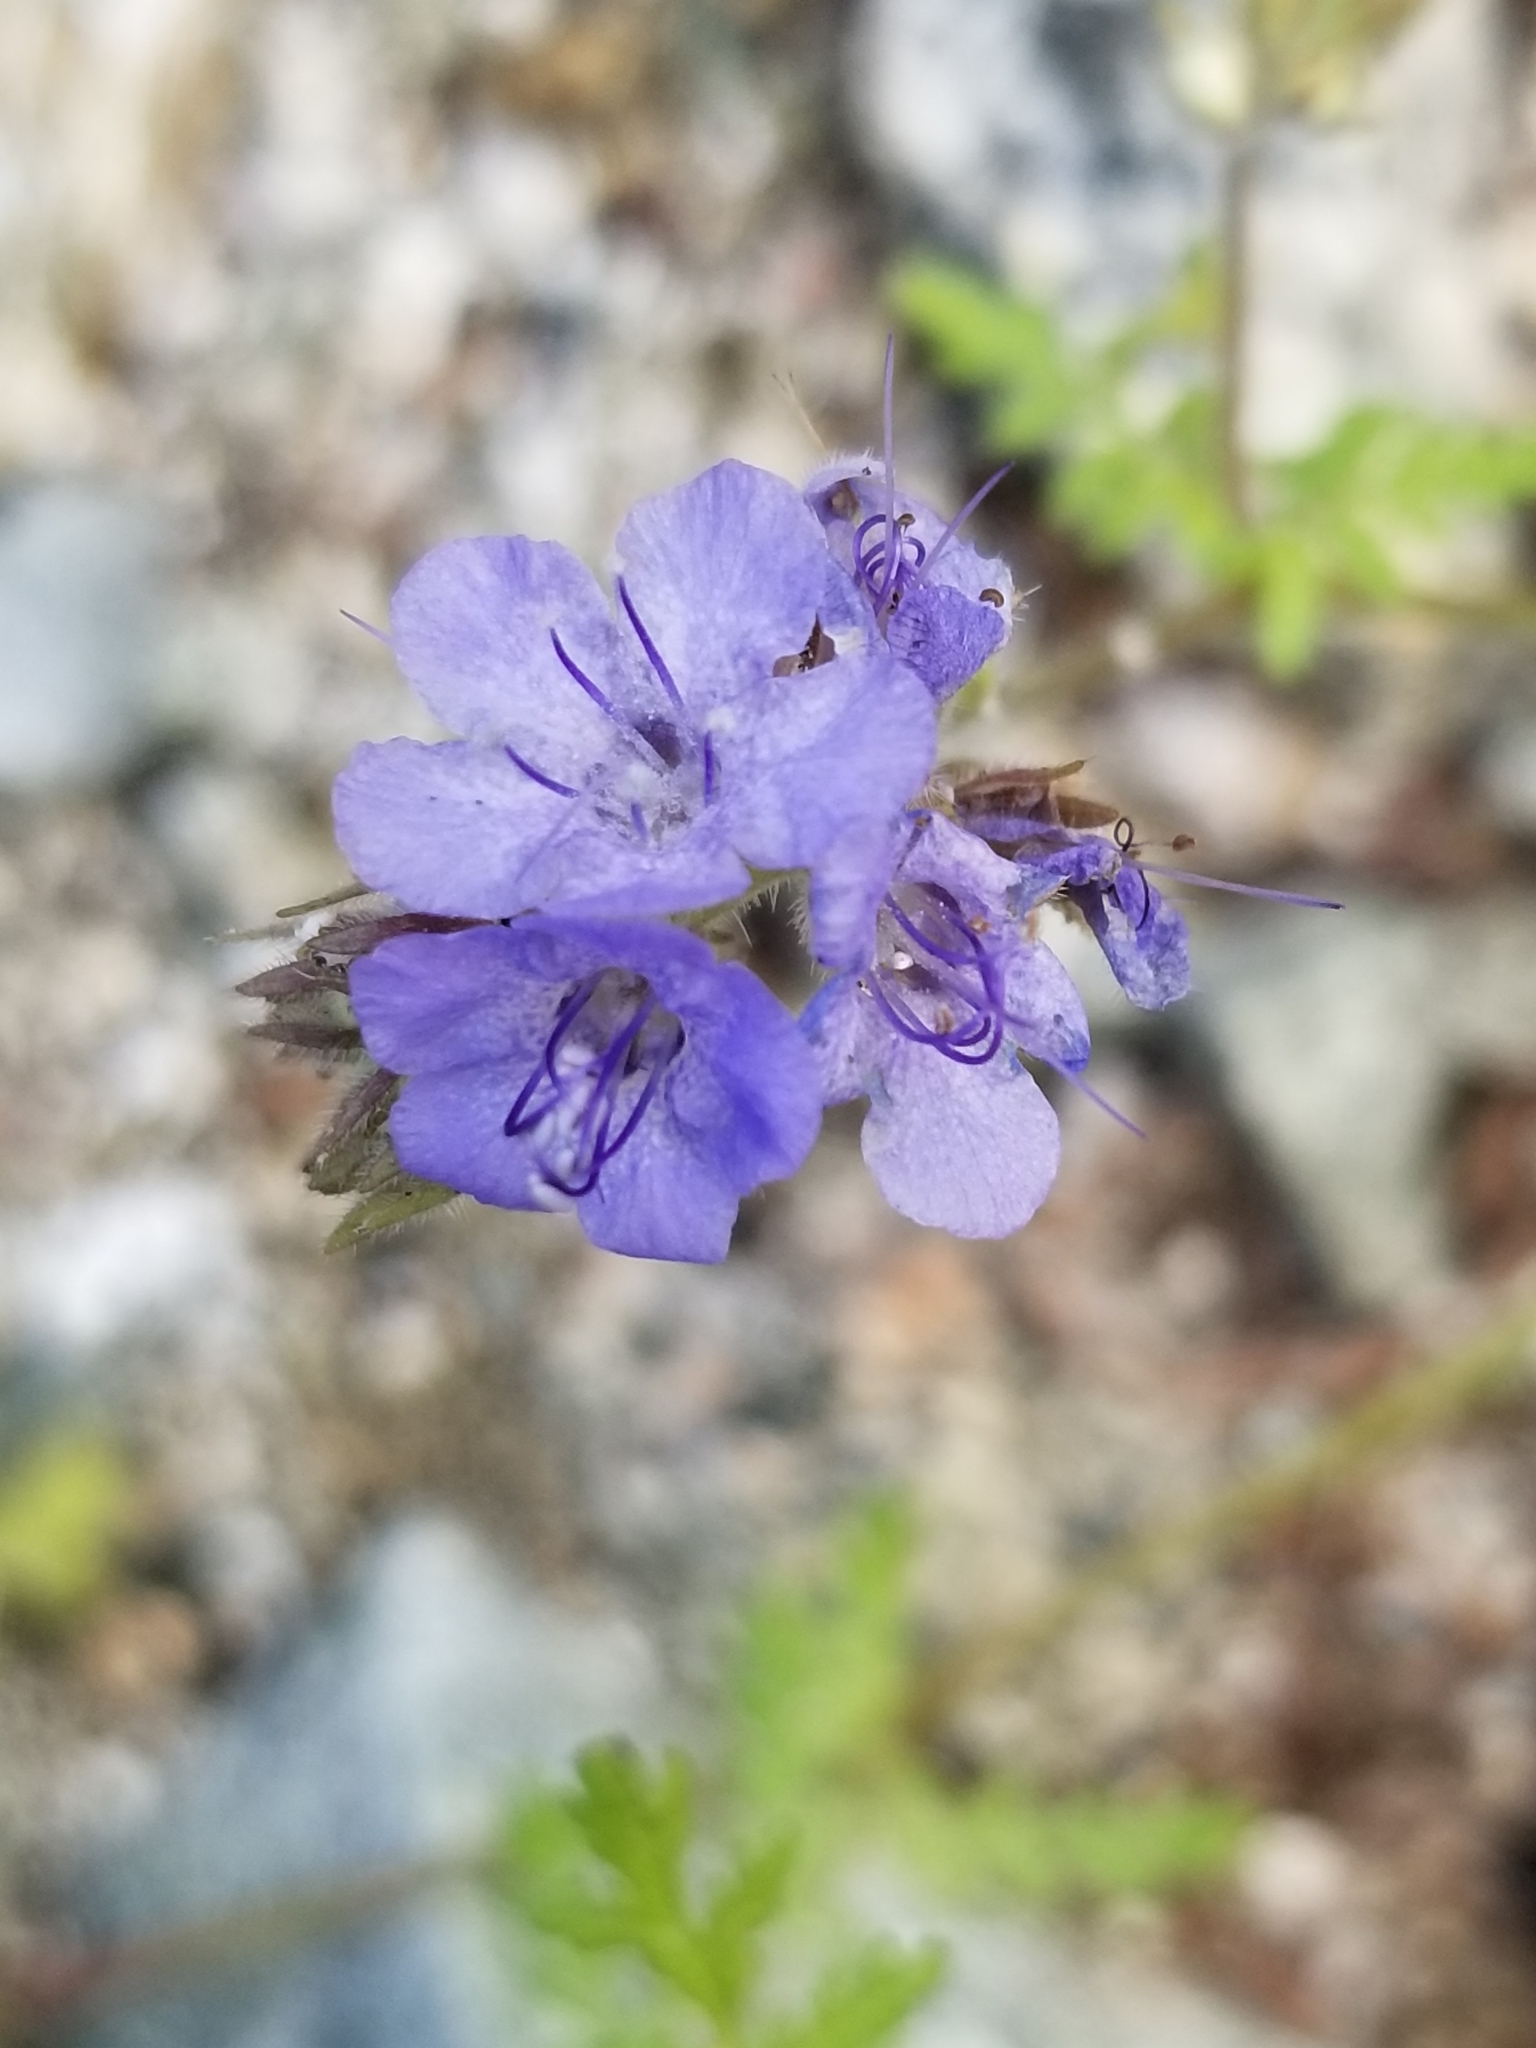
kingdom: Plantae
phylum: Tracheophyta
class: Magnoliopsida
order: Boraginales
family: Hydrophyllaceae
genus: Phacelia
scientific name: Phacelia distans
